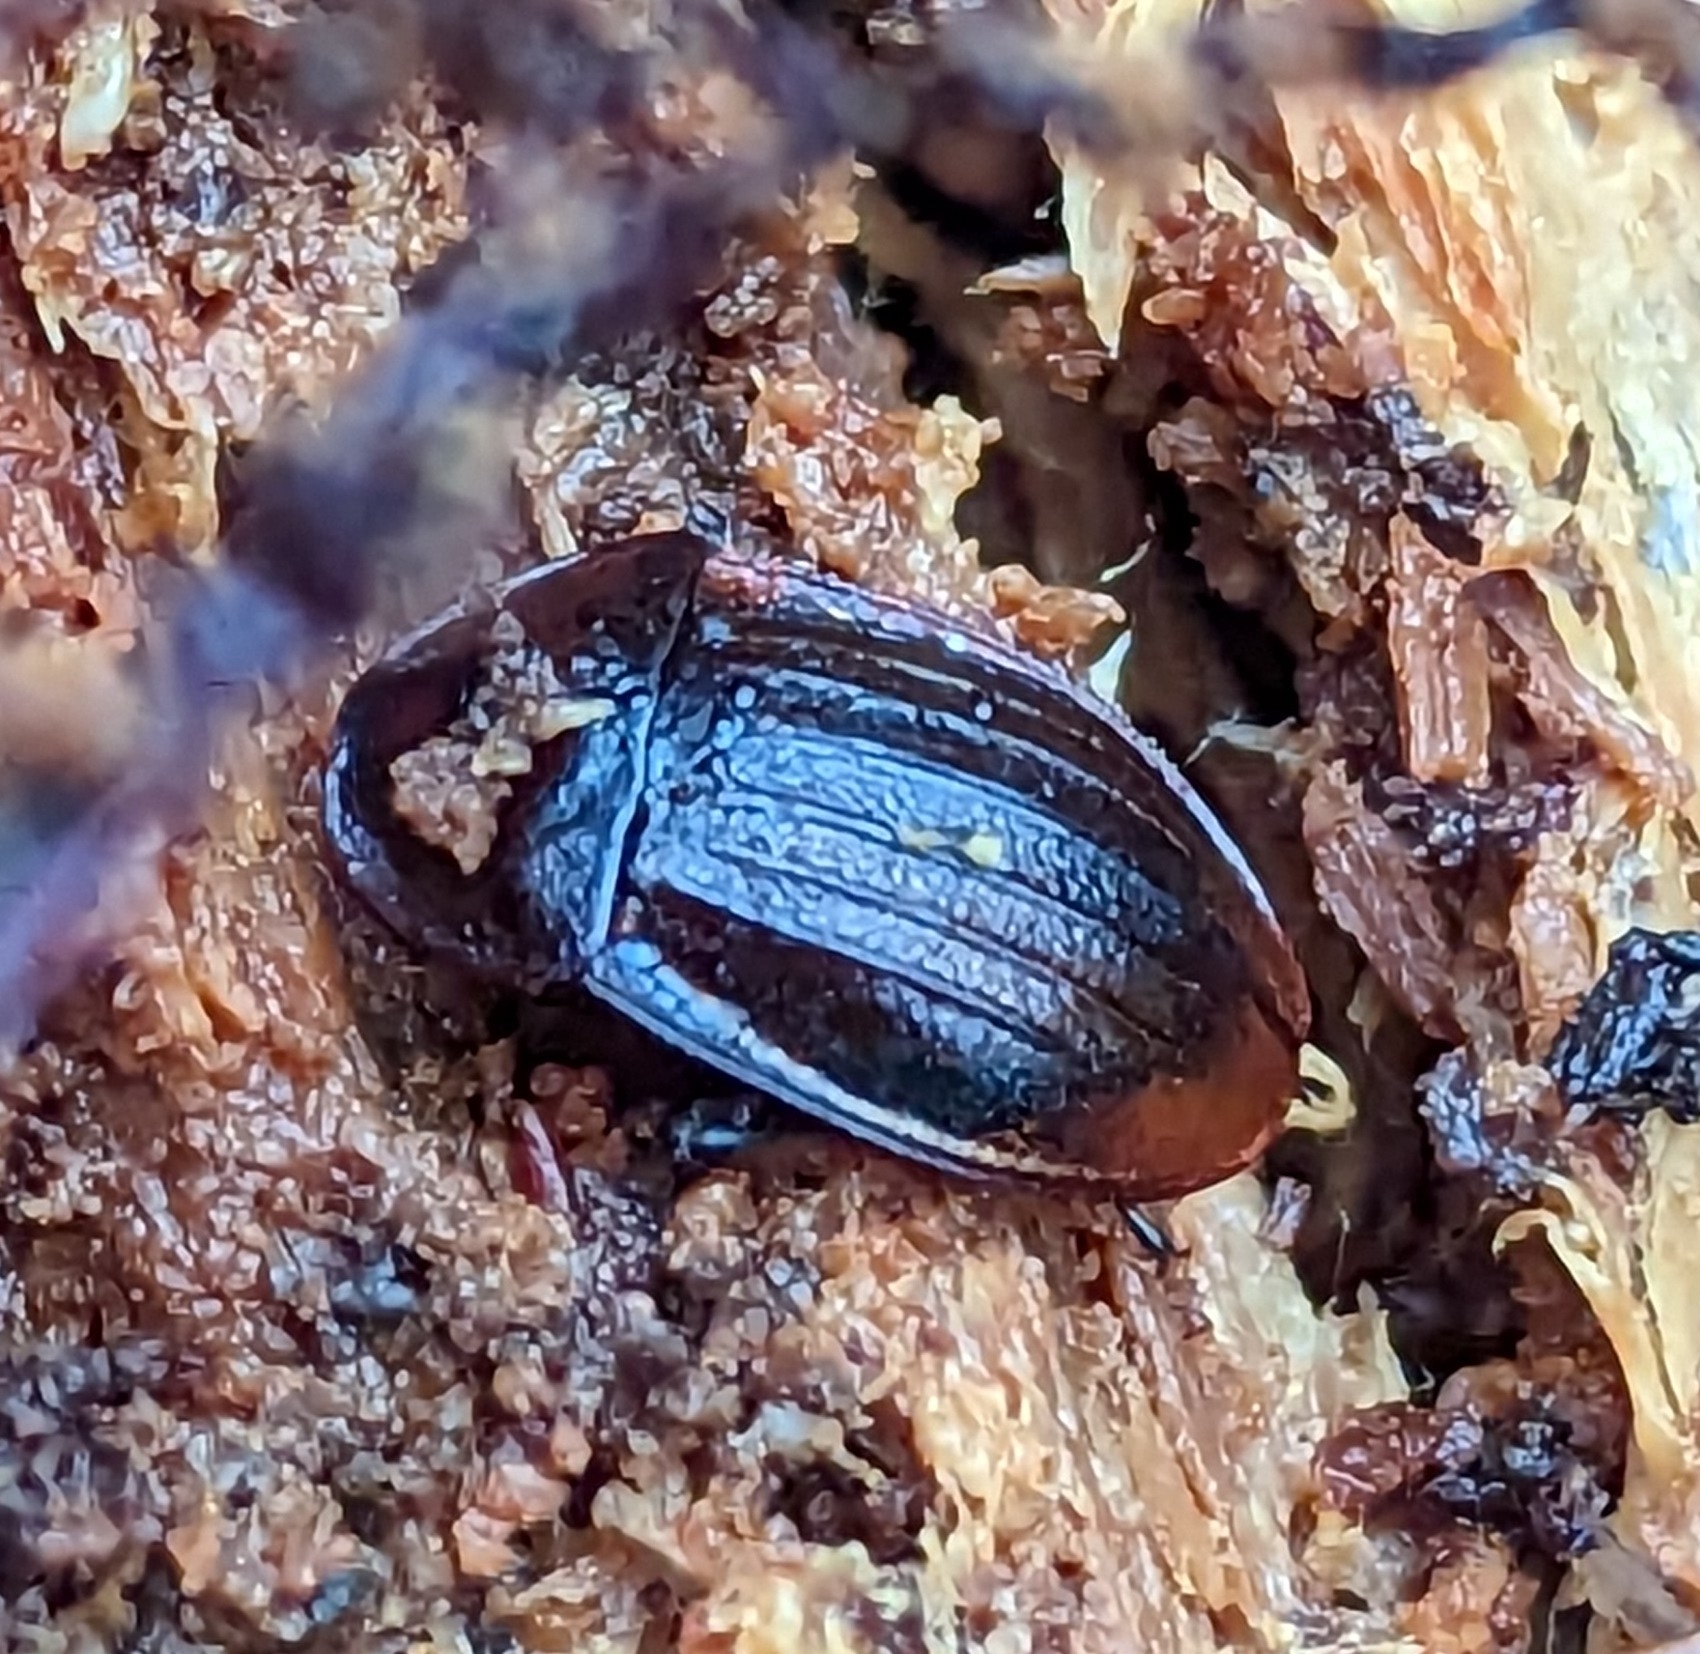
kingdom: Animalia
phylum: Arthropoda
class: Insecta
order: Coleoptera
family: Staphylinidae
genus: Silpha
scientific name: Silpha atrata
